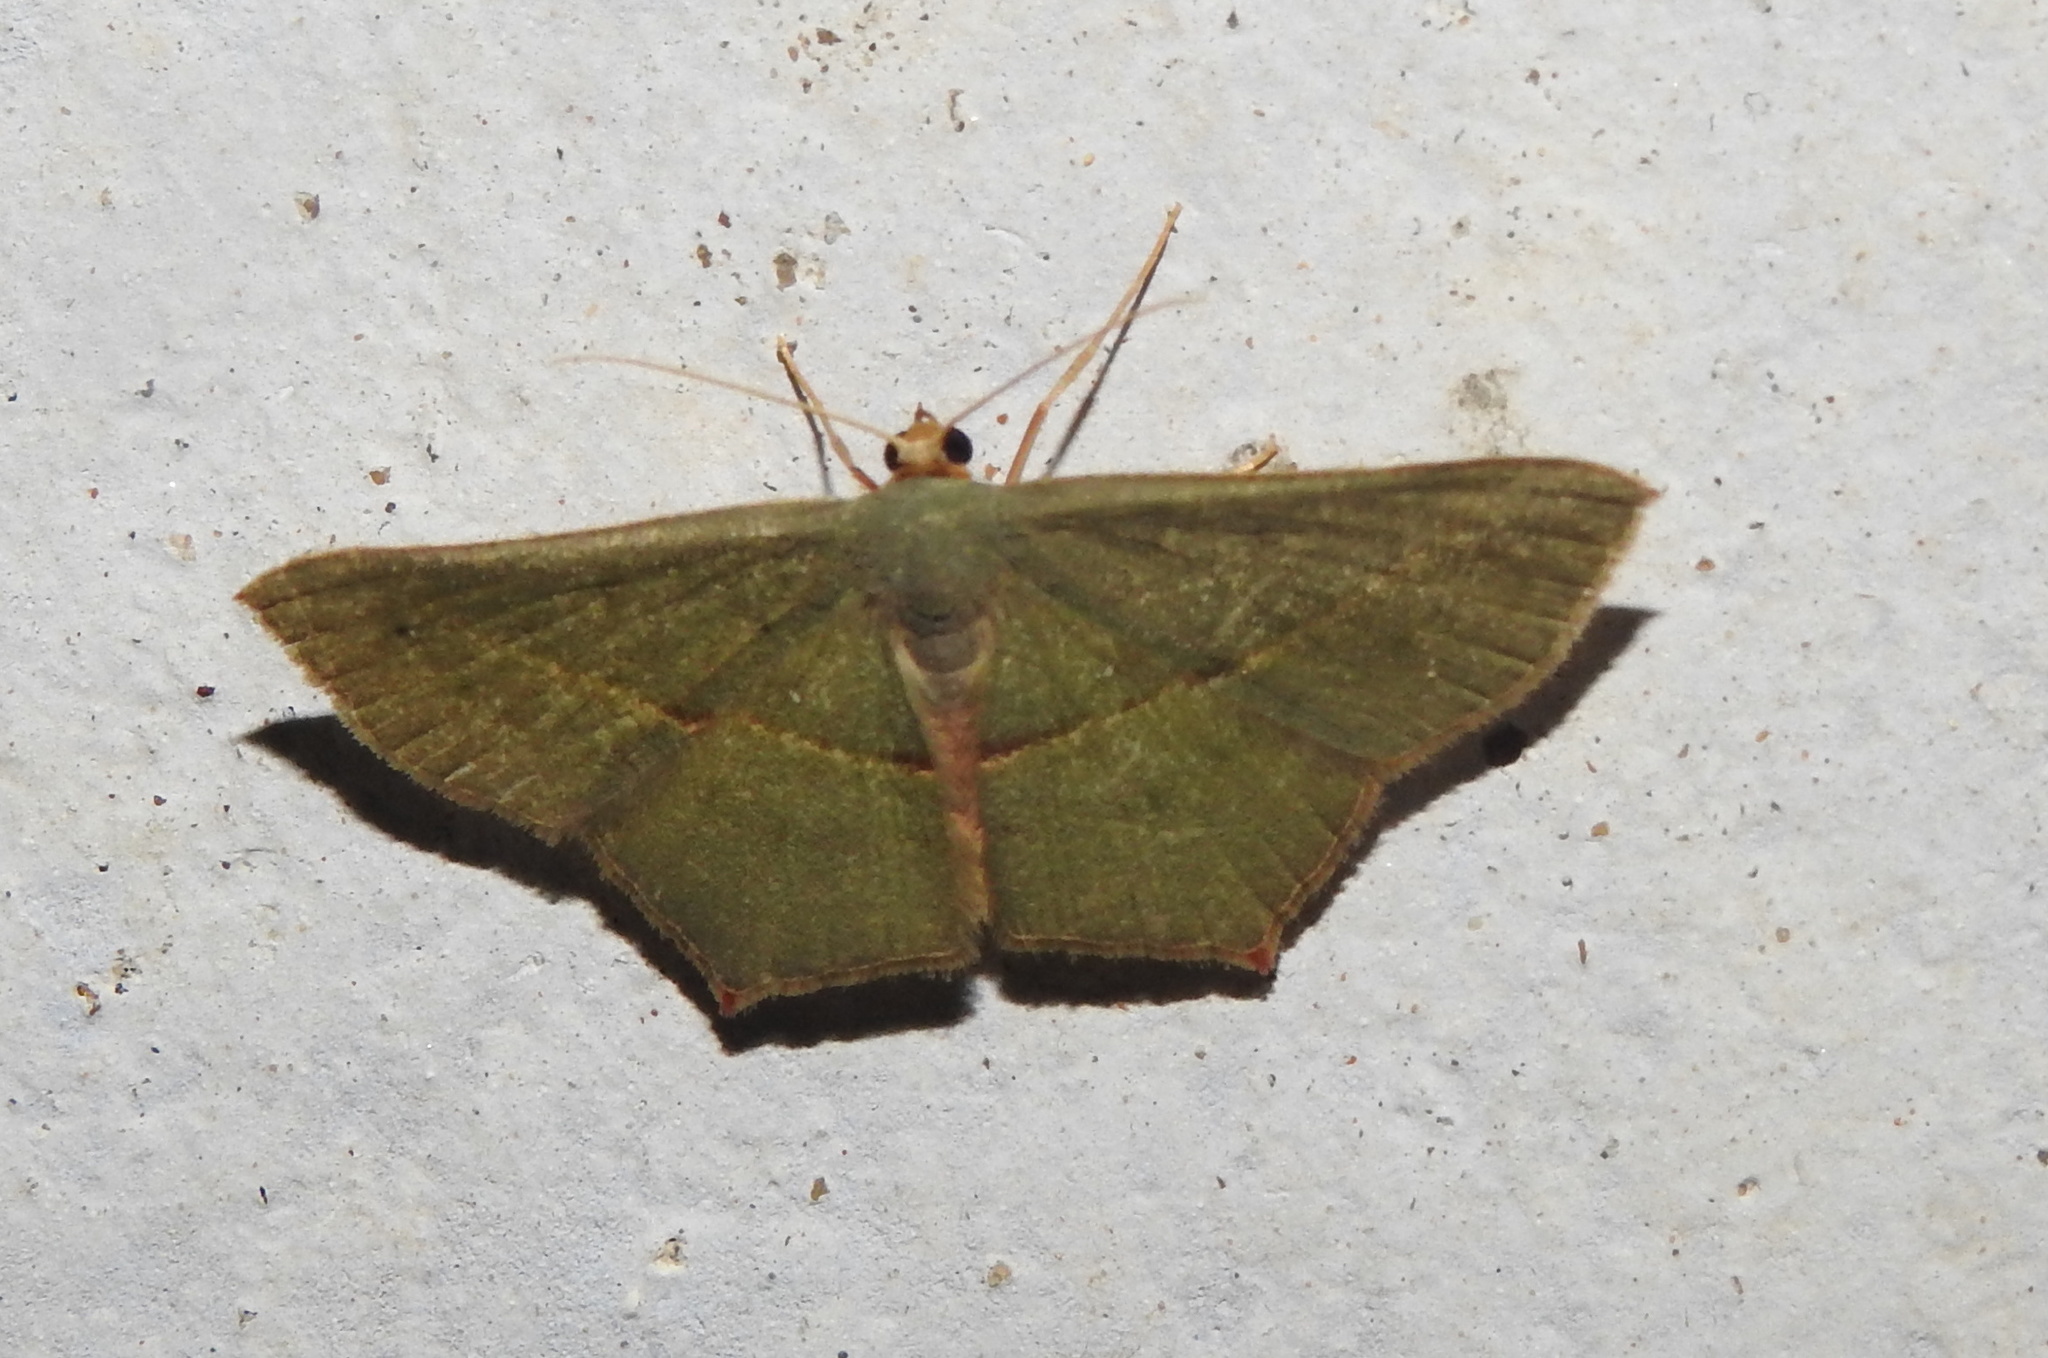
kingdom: Animalia
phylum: Arthropoda
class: Insecta
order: Lepidoptera
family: Geometridae
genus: Traminda
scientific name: Traminda mundissima
